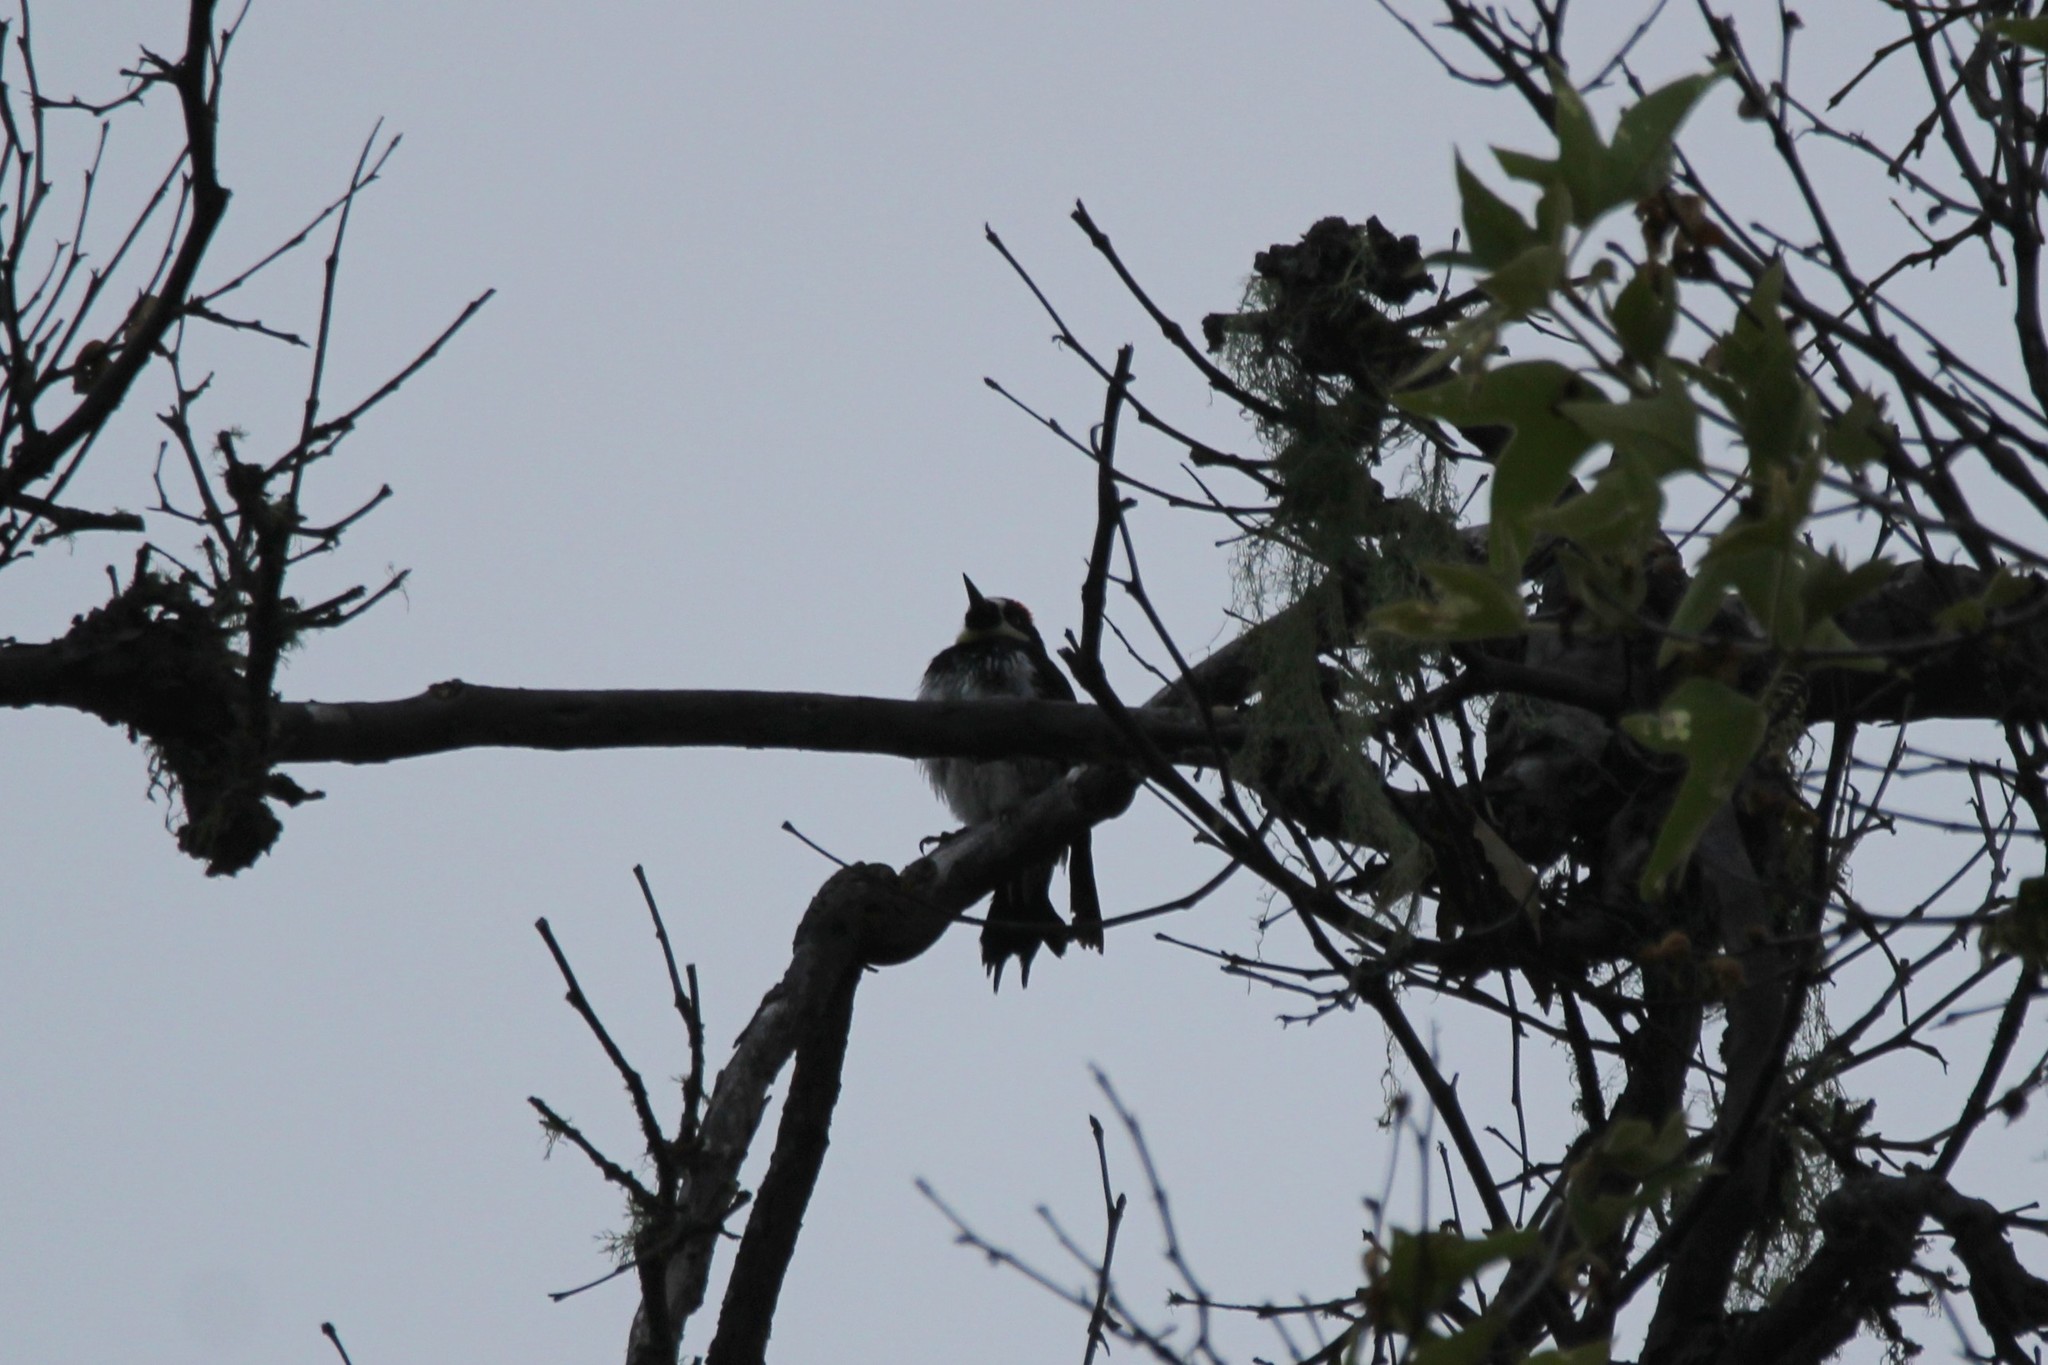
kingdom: Animalia
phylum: Chordata
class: Aves
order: Piciformes
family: Picidae
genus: Melanerpes
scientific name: Melanerpes formicivorus
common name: Acorn woodpecker
